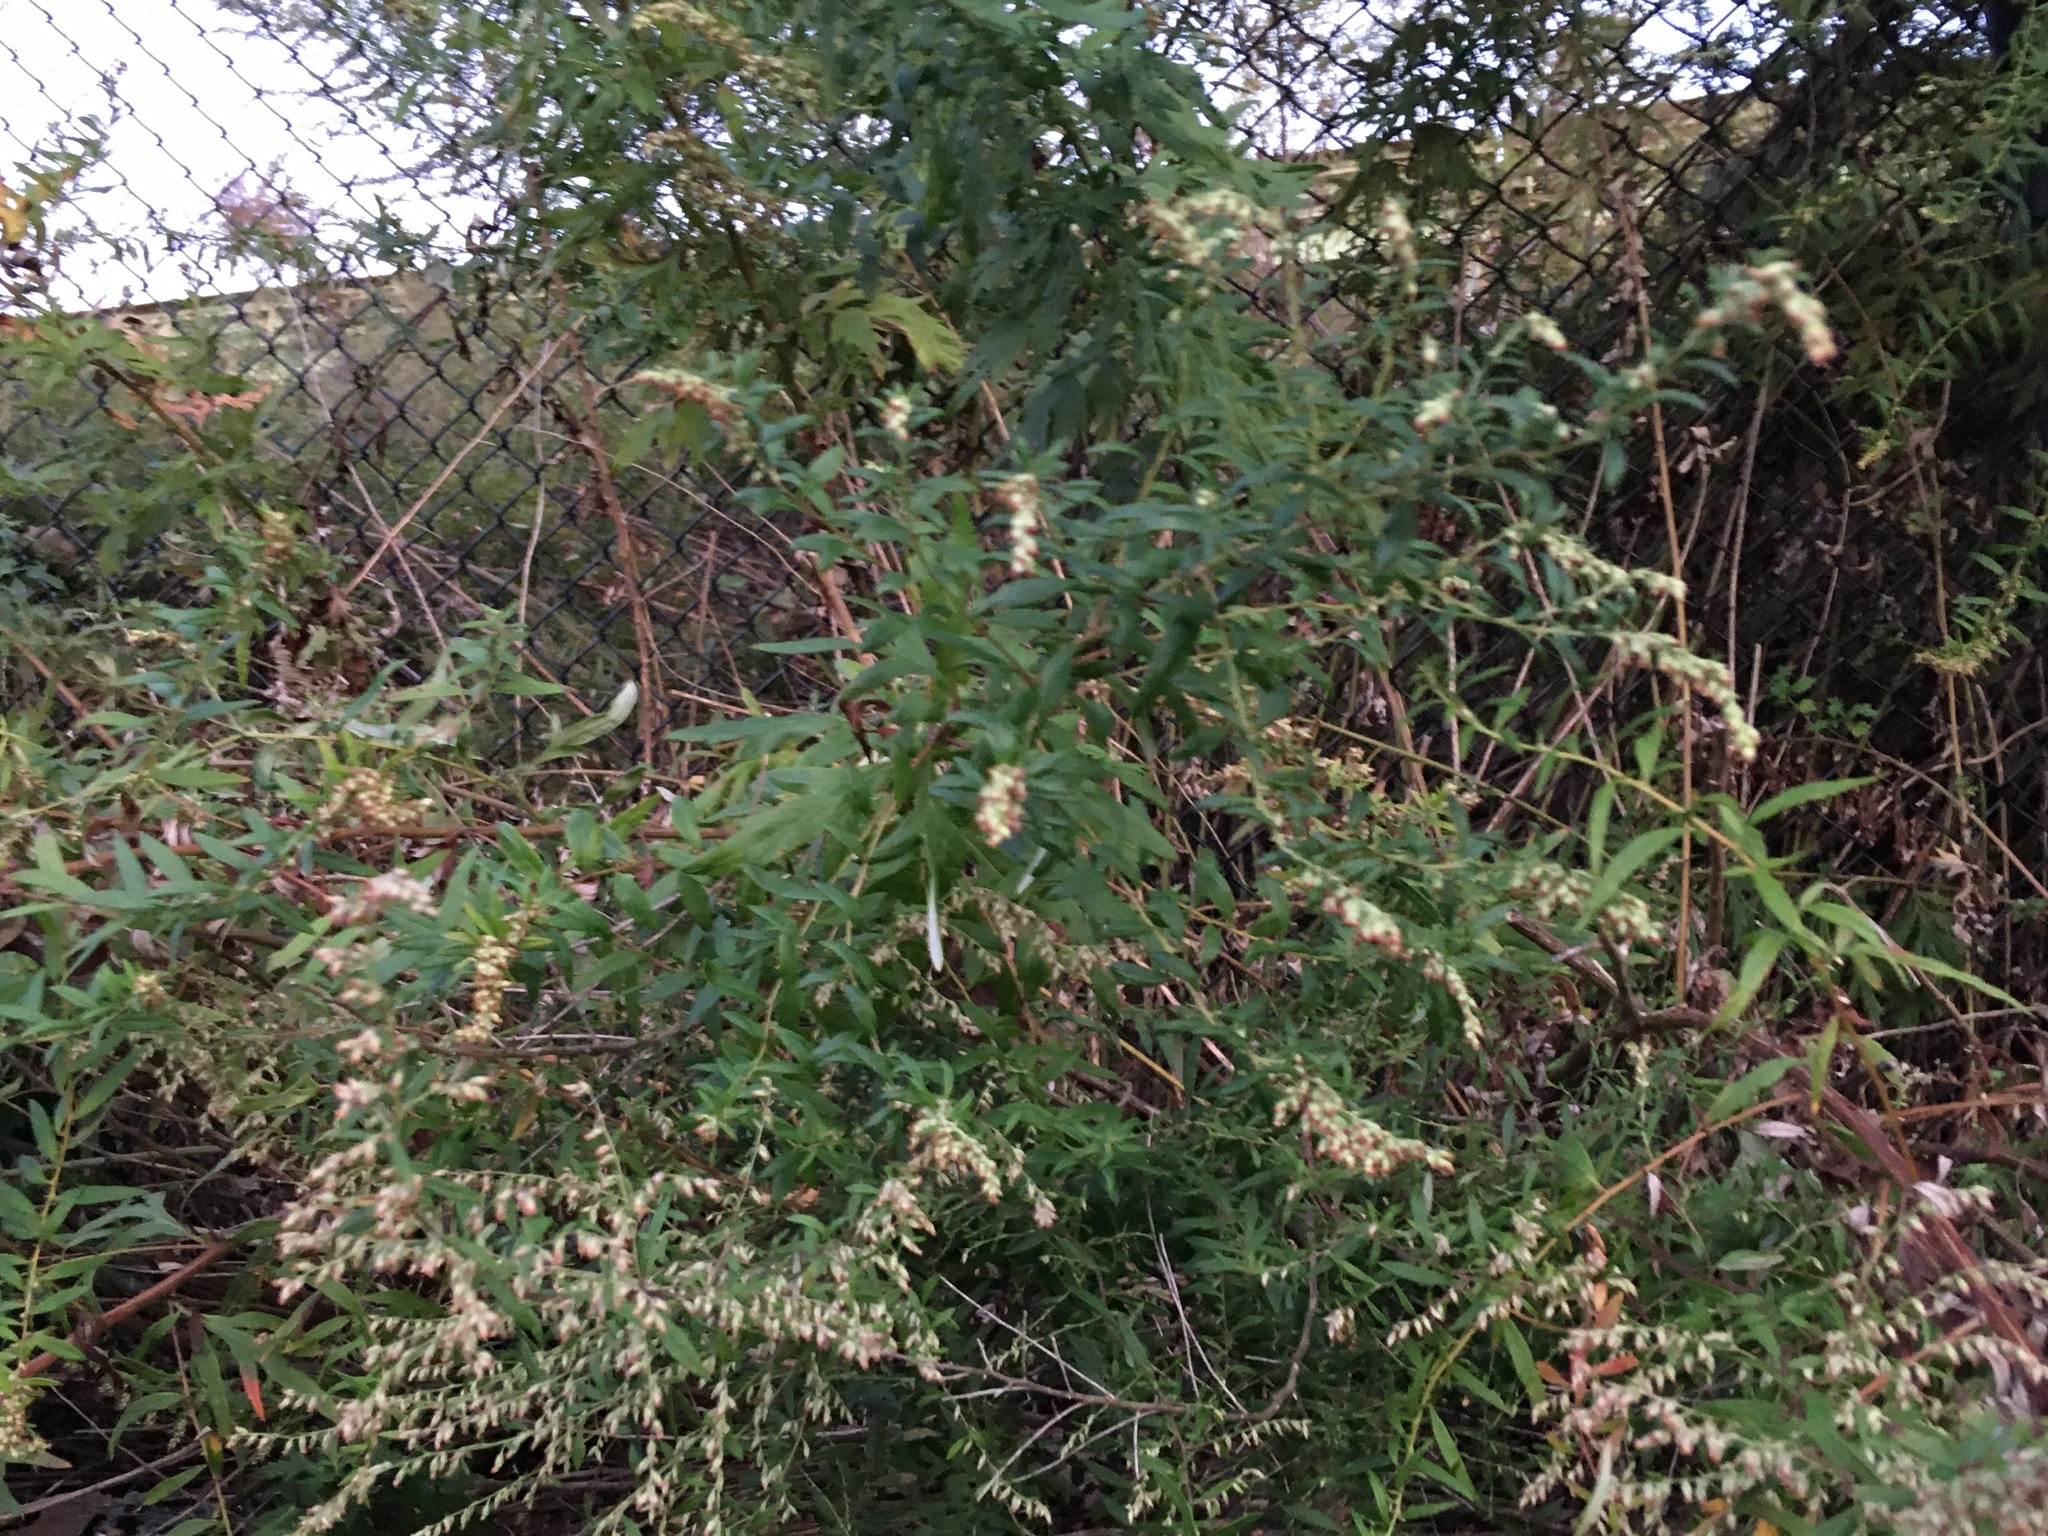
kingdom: Plantae
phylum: Tracheophyta
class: Magnoliopsida
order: Asterales
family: Asteraceae
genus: Artemisia
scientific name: Artemisia vulgaris
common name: Mugwort
